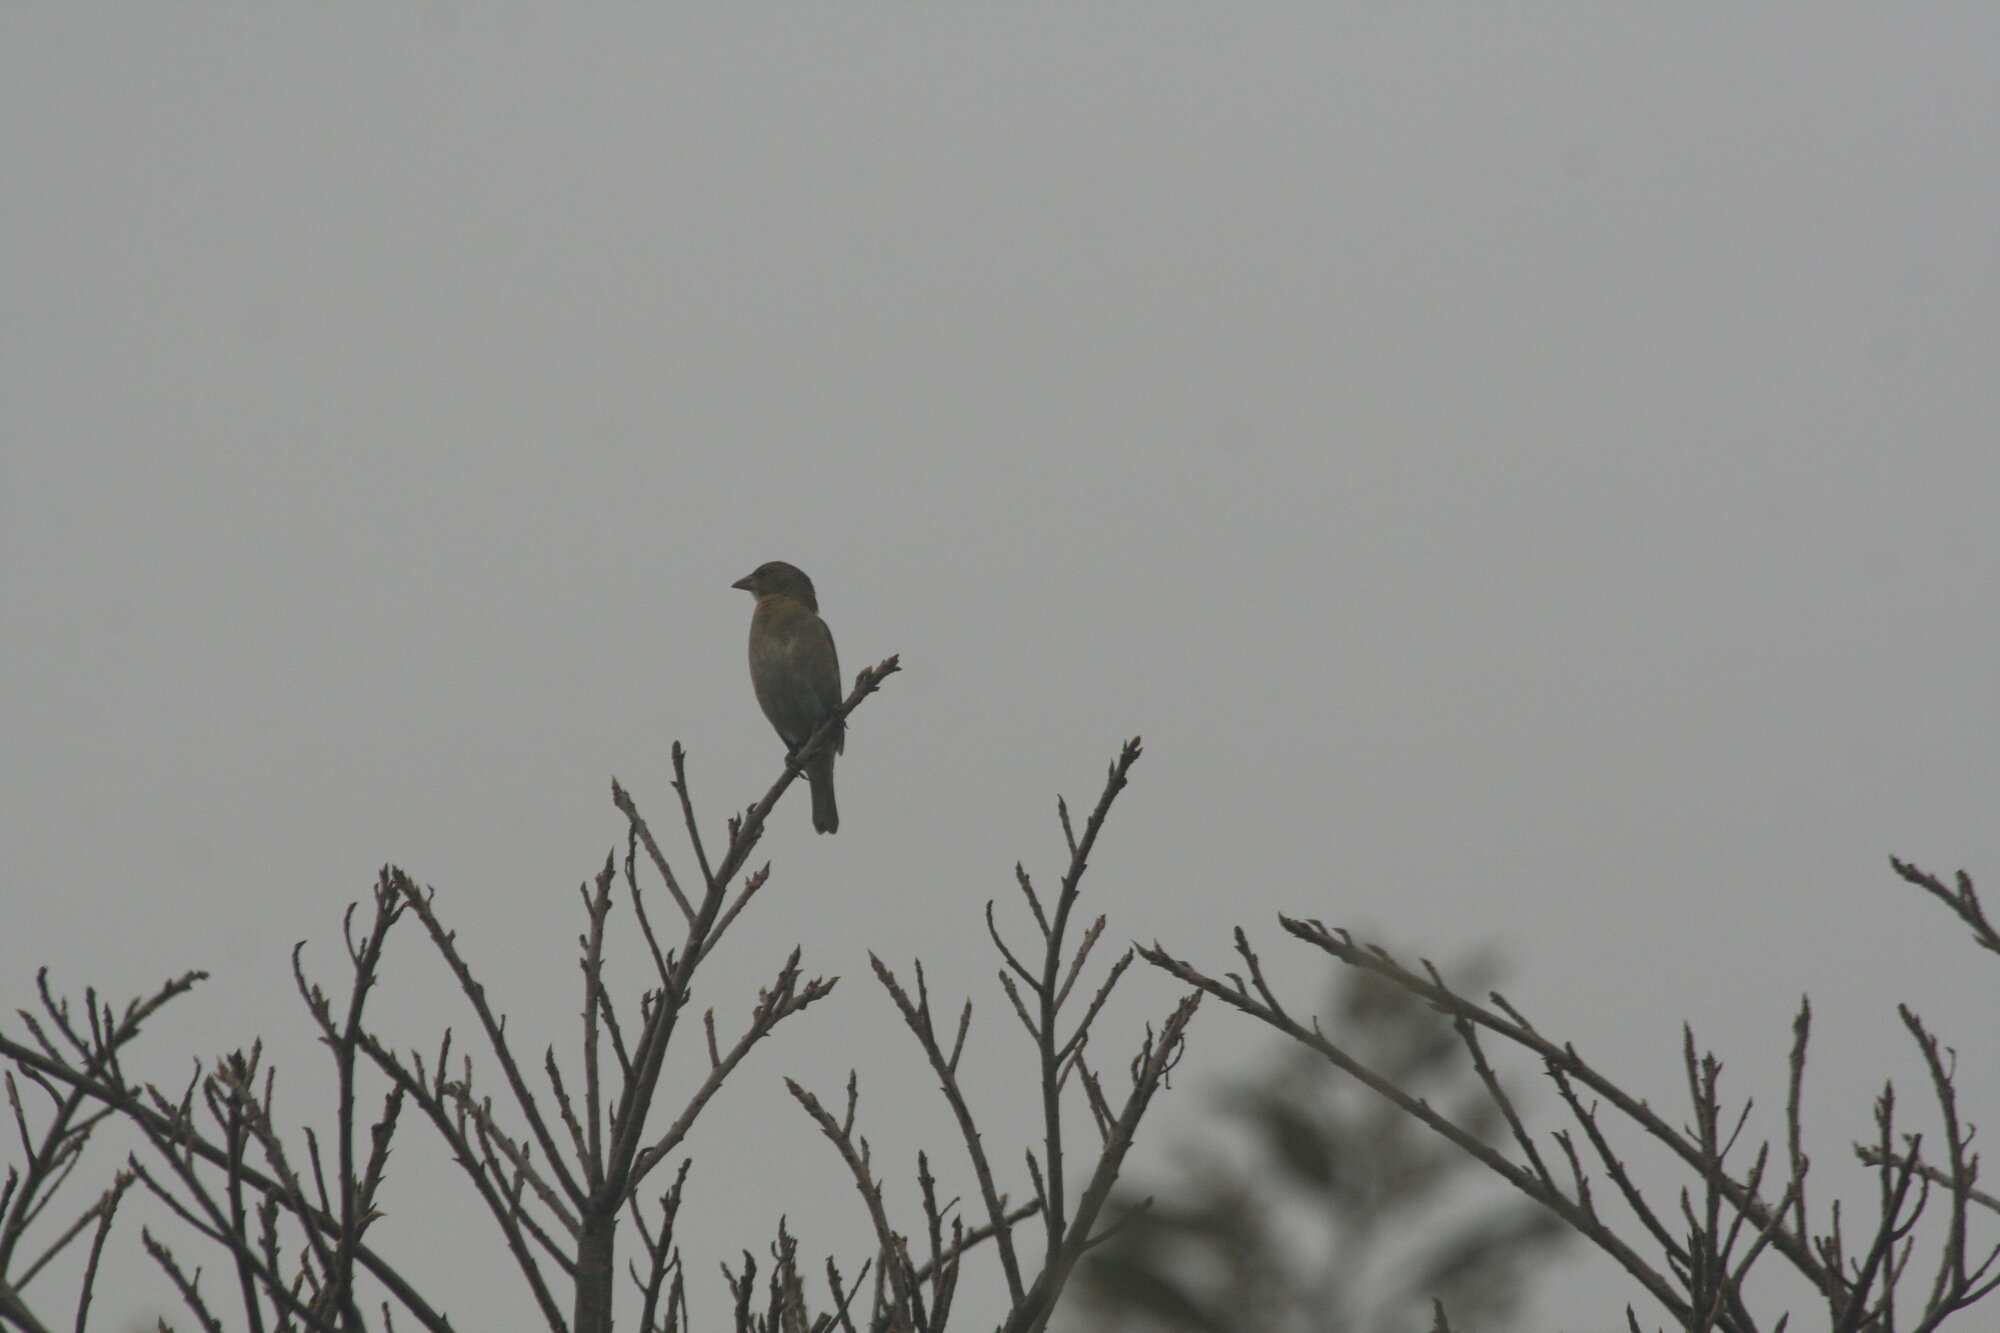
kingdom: Animalia
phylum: Chordata
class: Aves
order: Passeriformes
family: Ploceidae
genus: Ploceus
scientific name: Ploceus velatus
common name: Southern masked weaver
